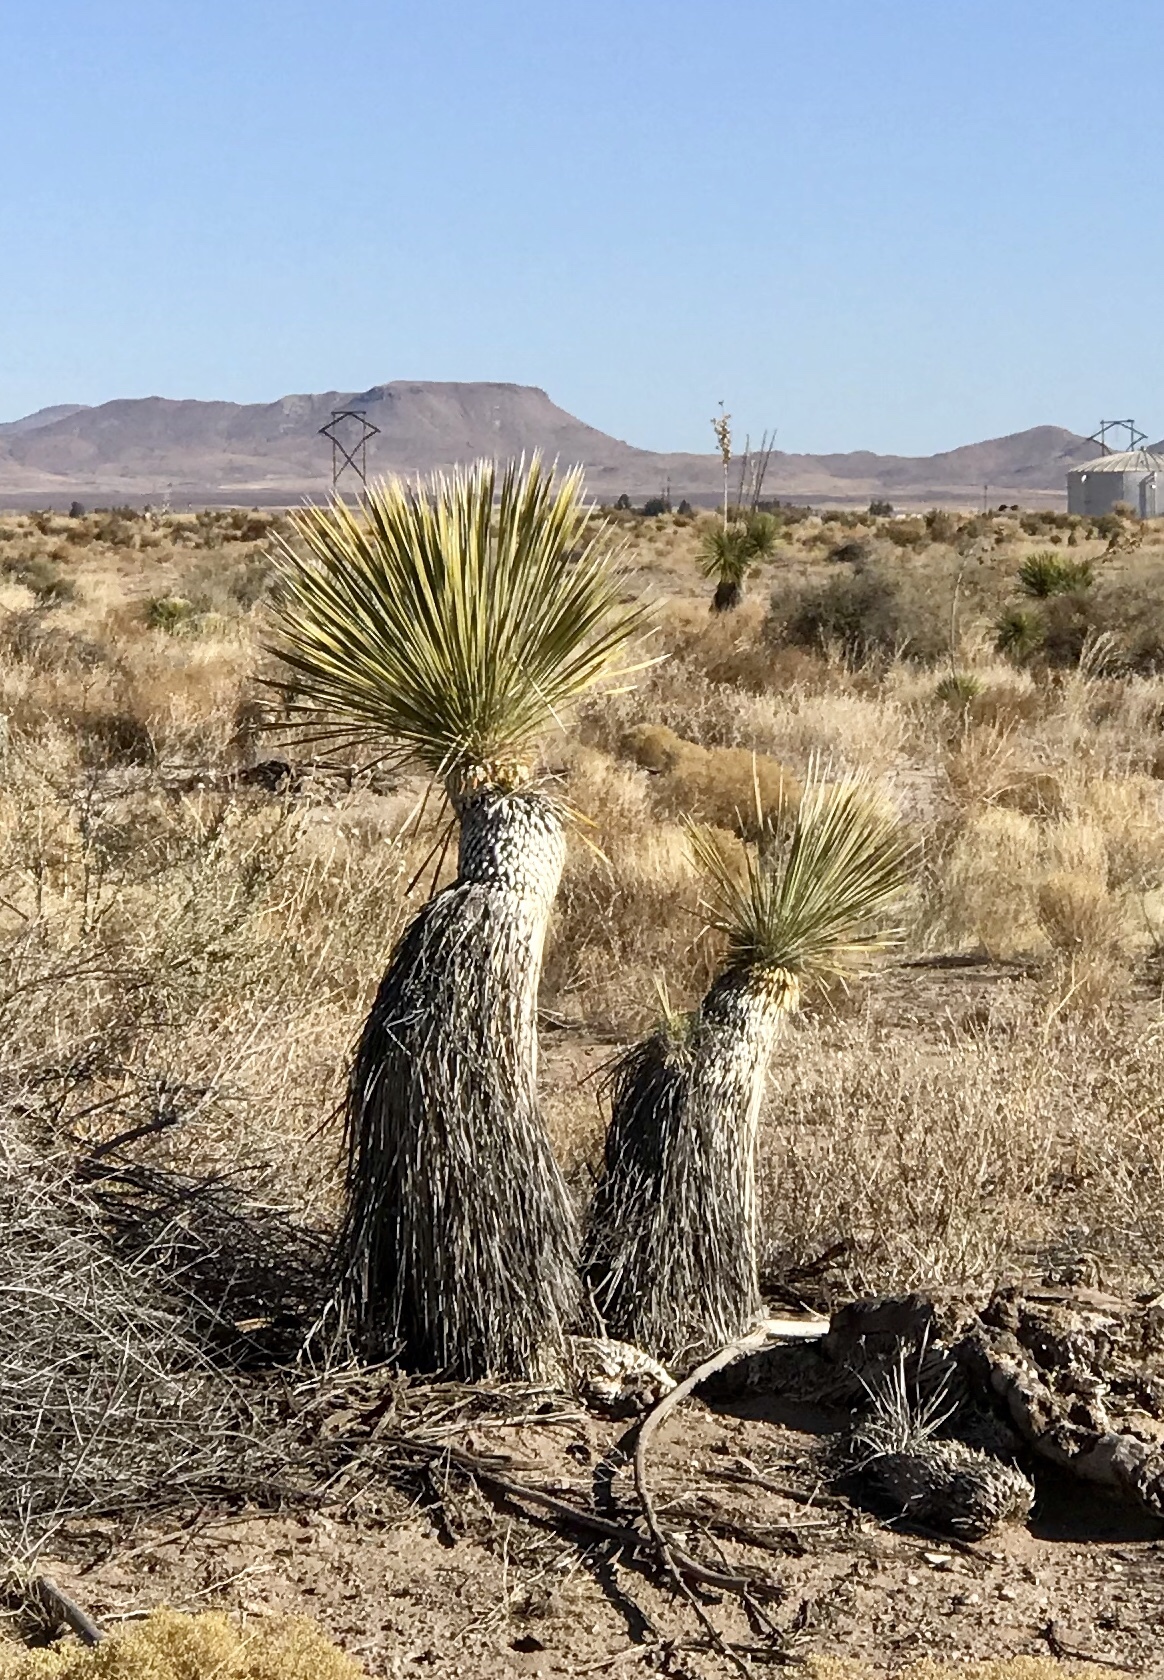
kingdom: Plantae
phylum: Tracheophyta
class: Liliopsida
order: Asparagales
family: Asparagaceae
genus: Yucca
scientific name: Yucca elata
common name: Palmella
